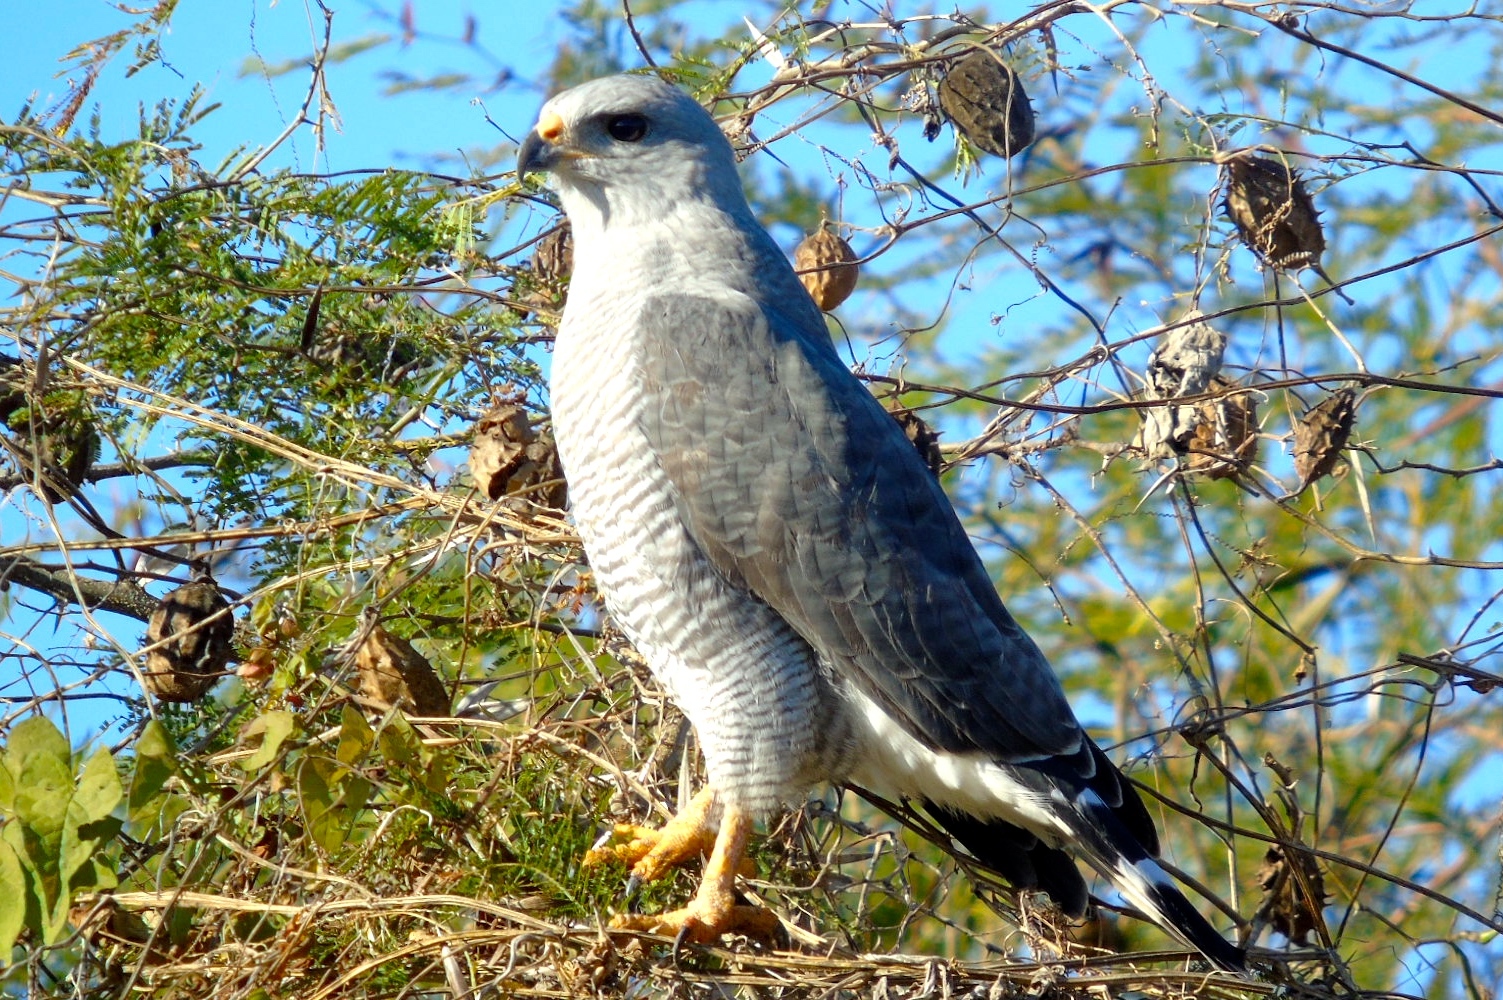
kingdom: Animalia
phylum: Chordata
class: Aves
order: Accipitriformes
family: Accipitridae
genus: Buteo
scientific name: Buteo nitidus
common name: Grey-lined hawk
